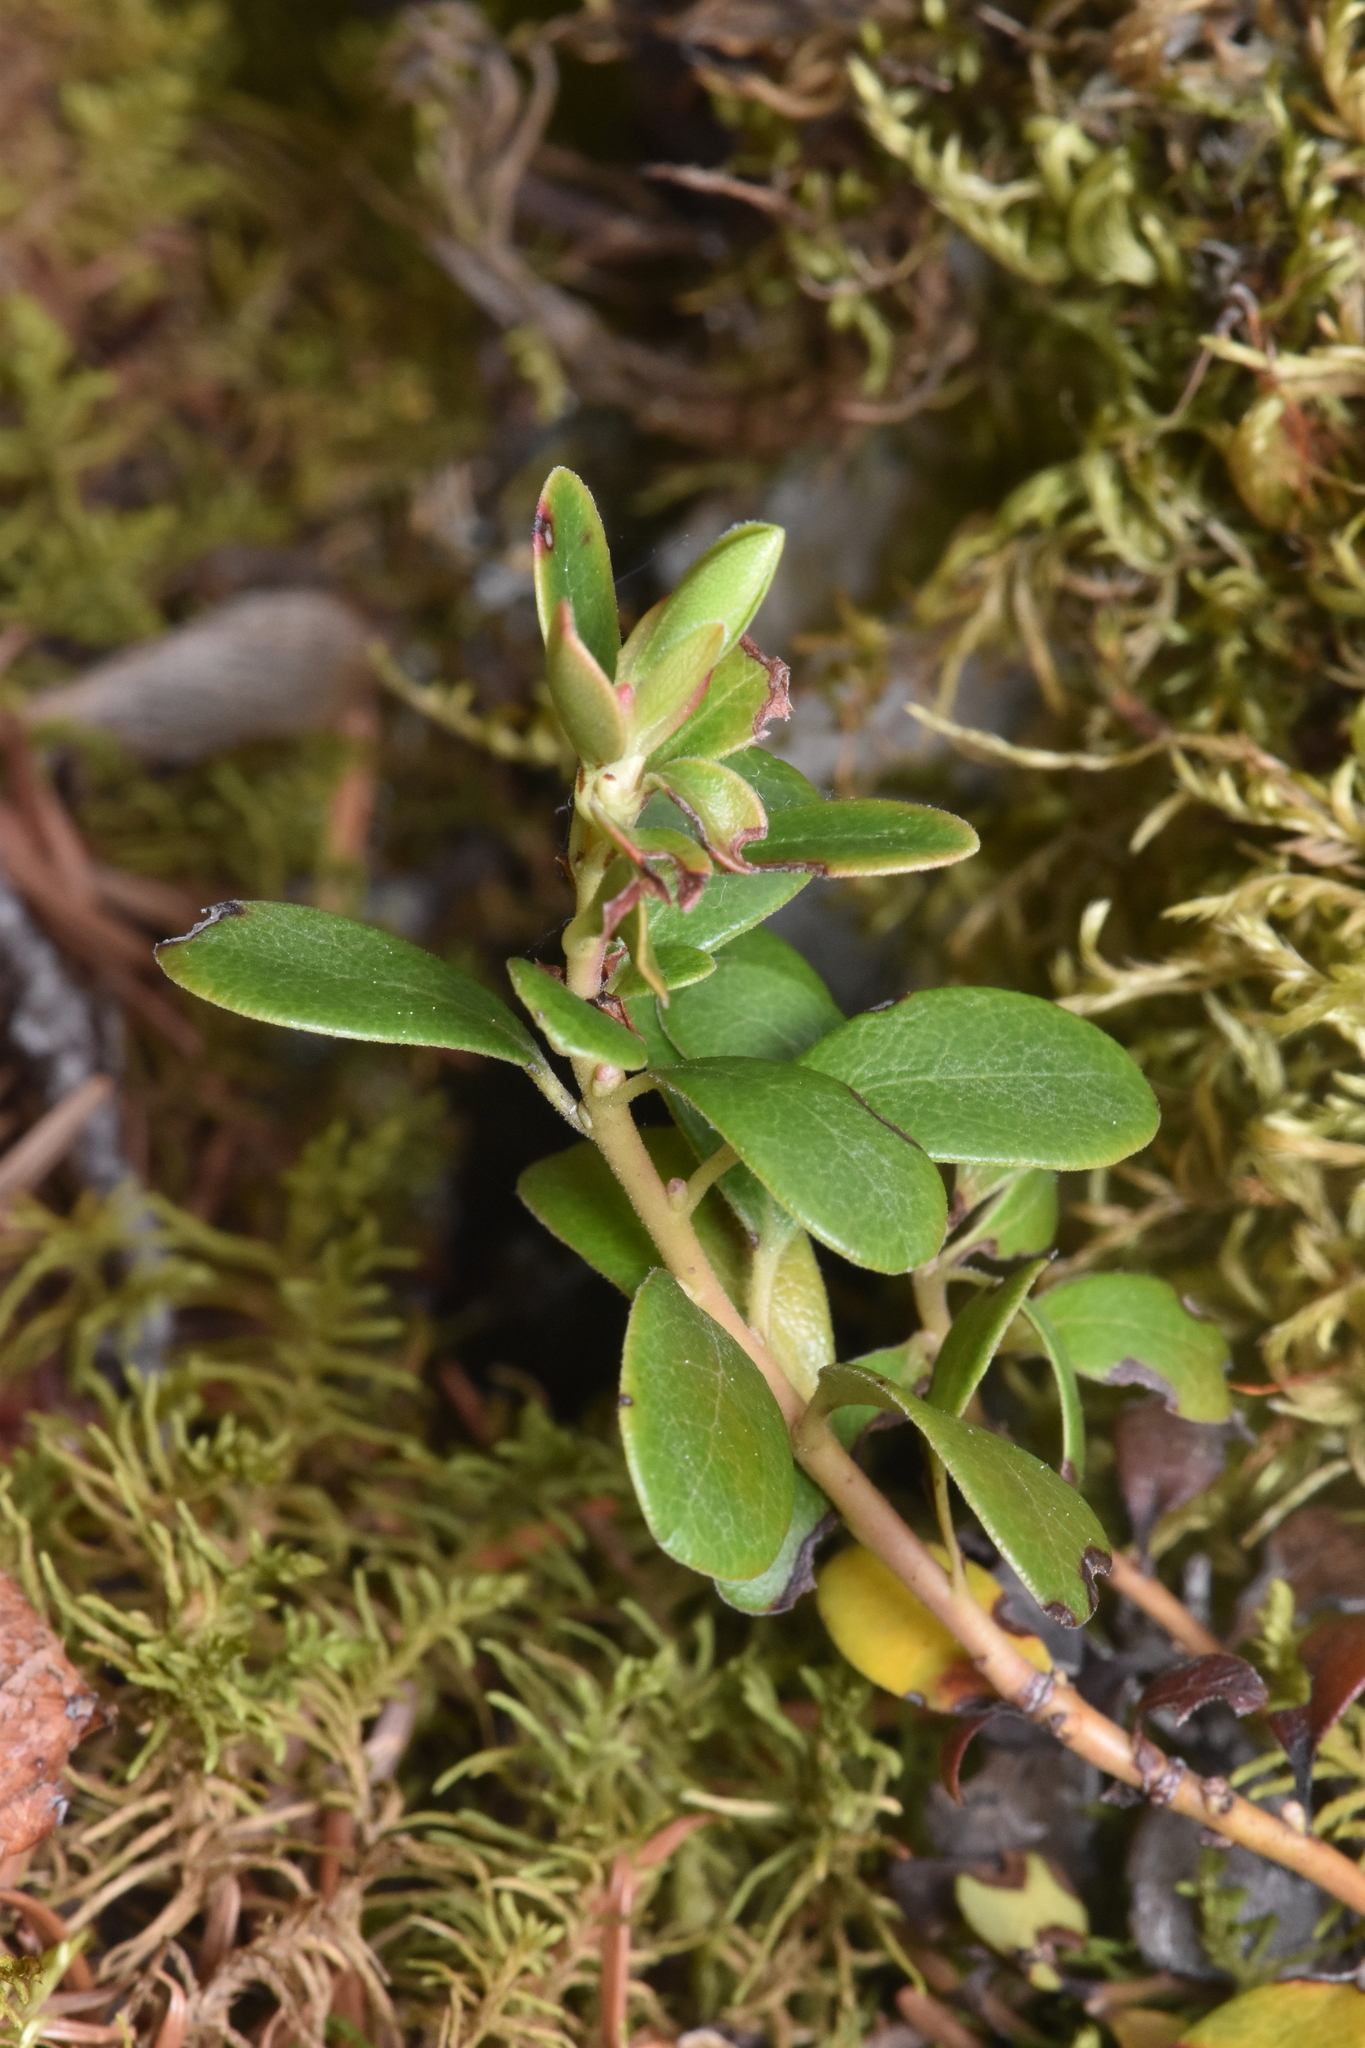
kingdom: Plantae
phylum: Tracheophyta
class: Magnoliopsida
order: Ericales
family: Ericaceae
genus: Arctostaphylos
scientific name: Arctostaphylos uva-ursi
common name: Bearberry
